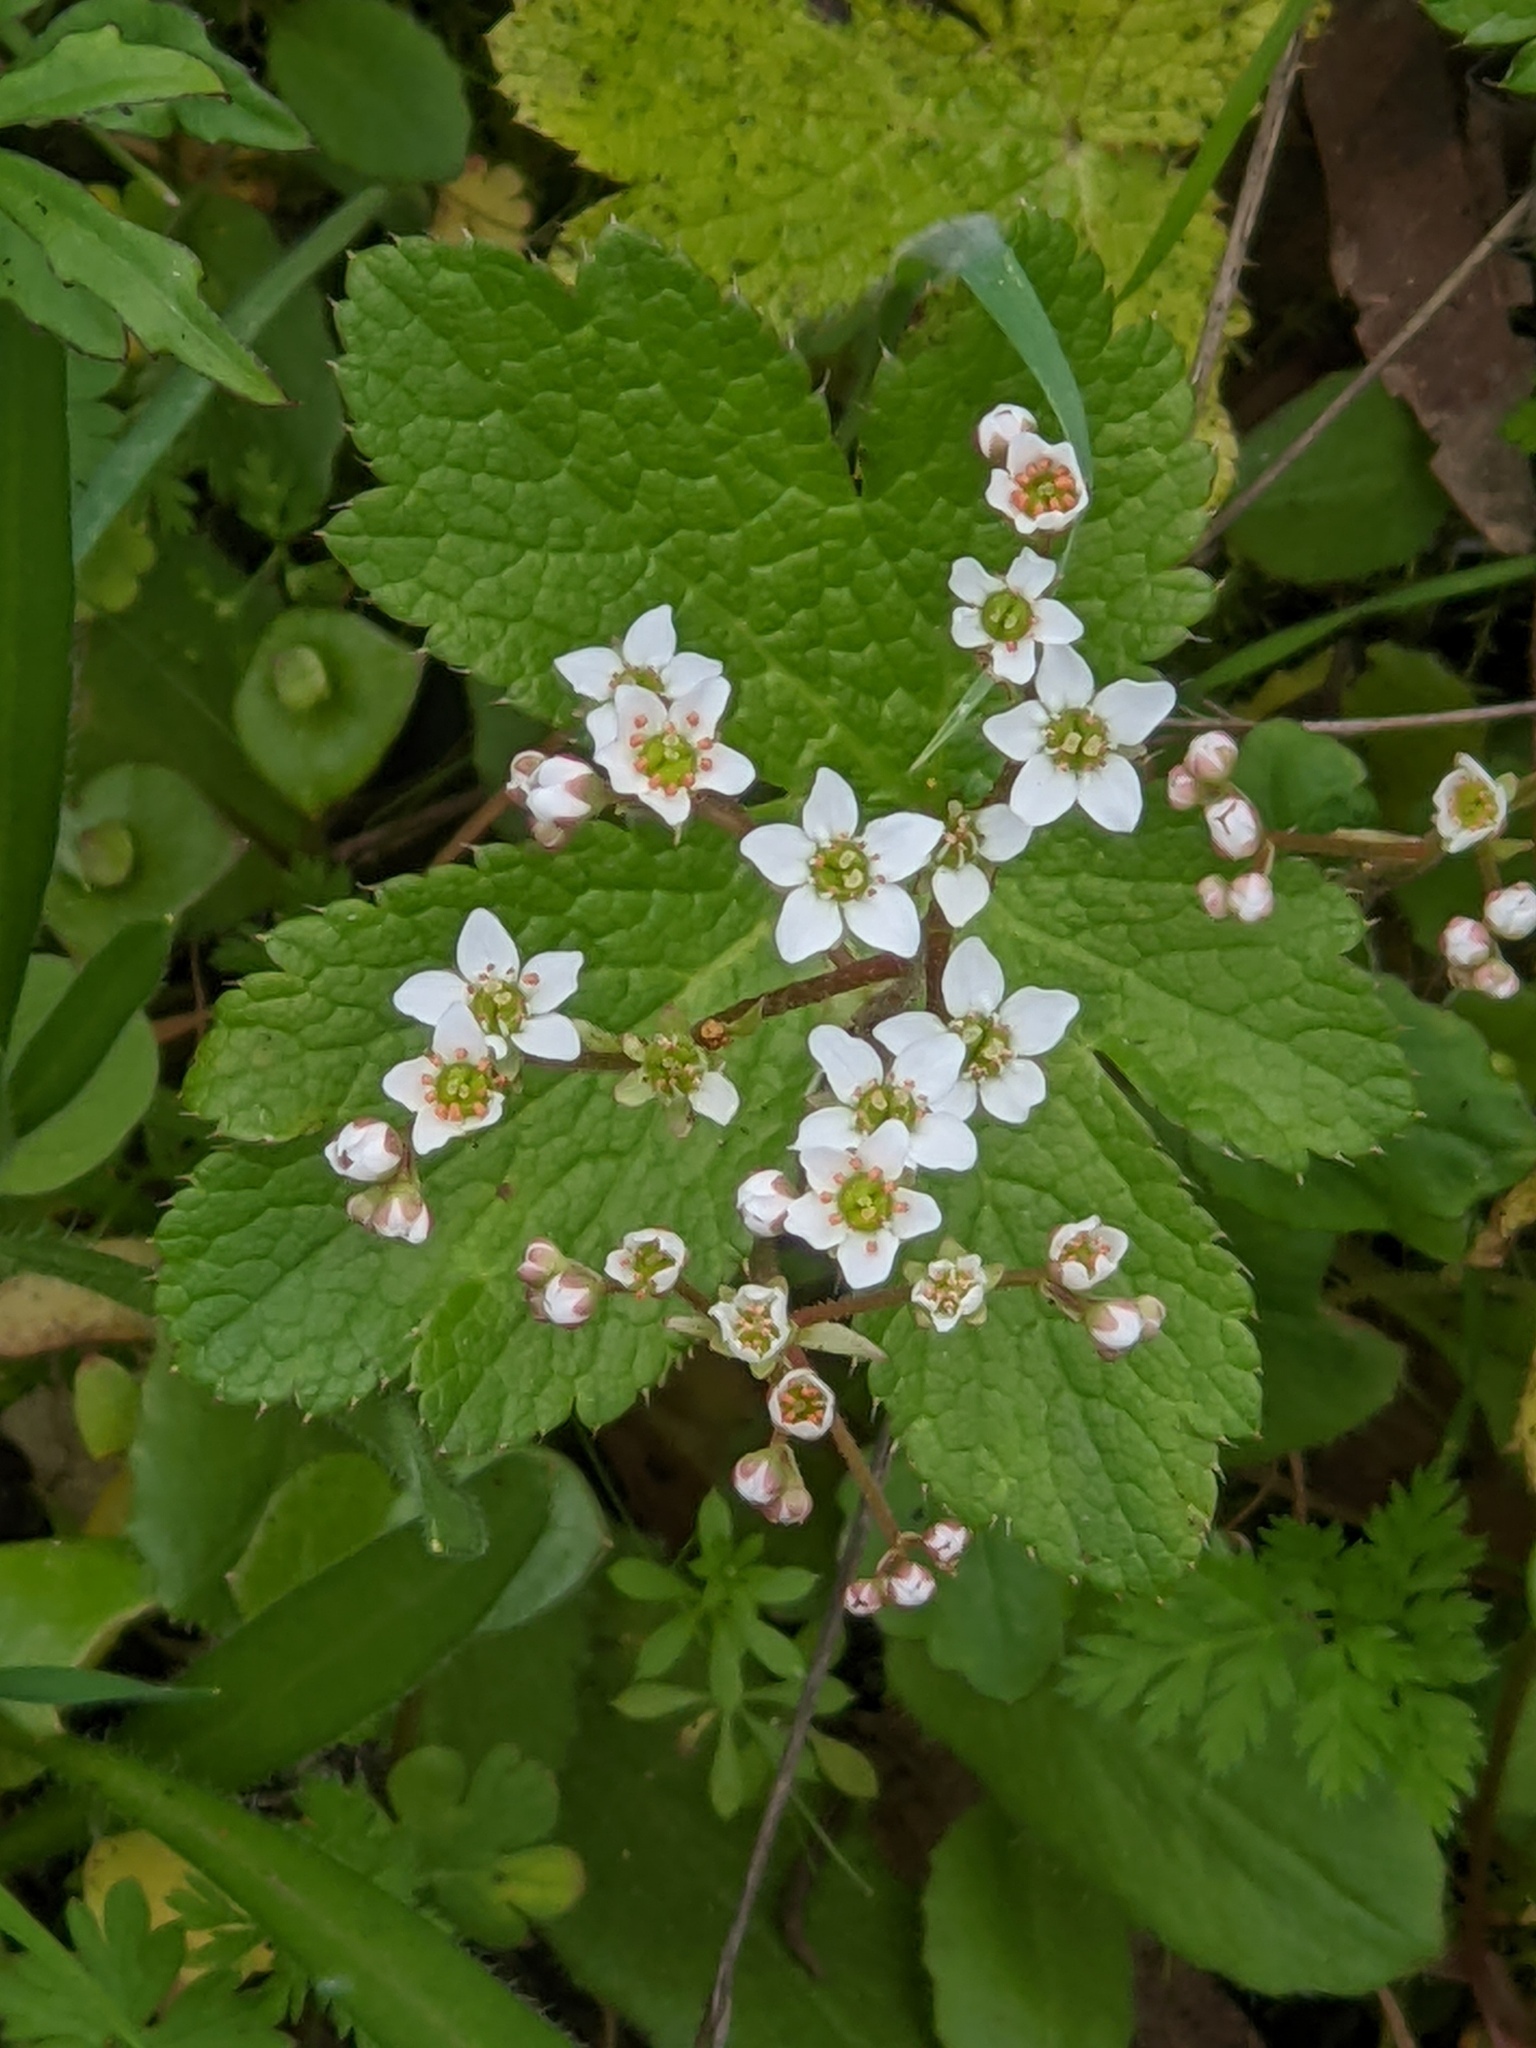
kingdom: Plantae
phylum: Tracheophyta
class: Magnoliopsida
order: Saxifragales
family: Saxifragaceae
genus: Micranthes
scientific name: Micranthes californica
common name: California saxifrage
